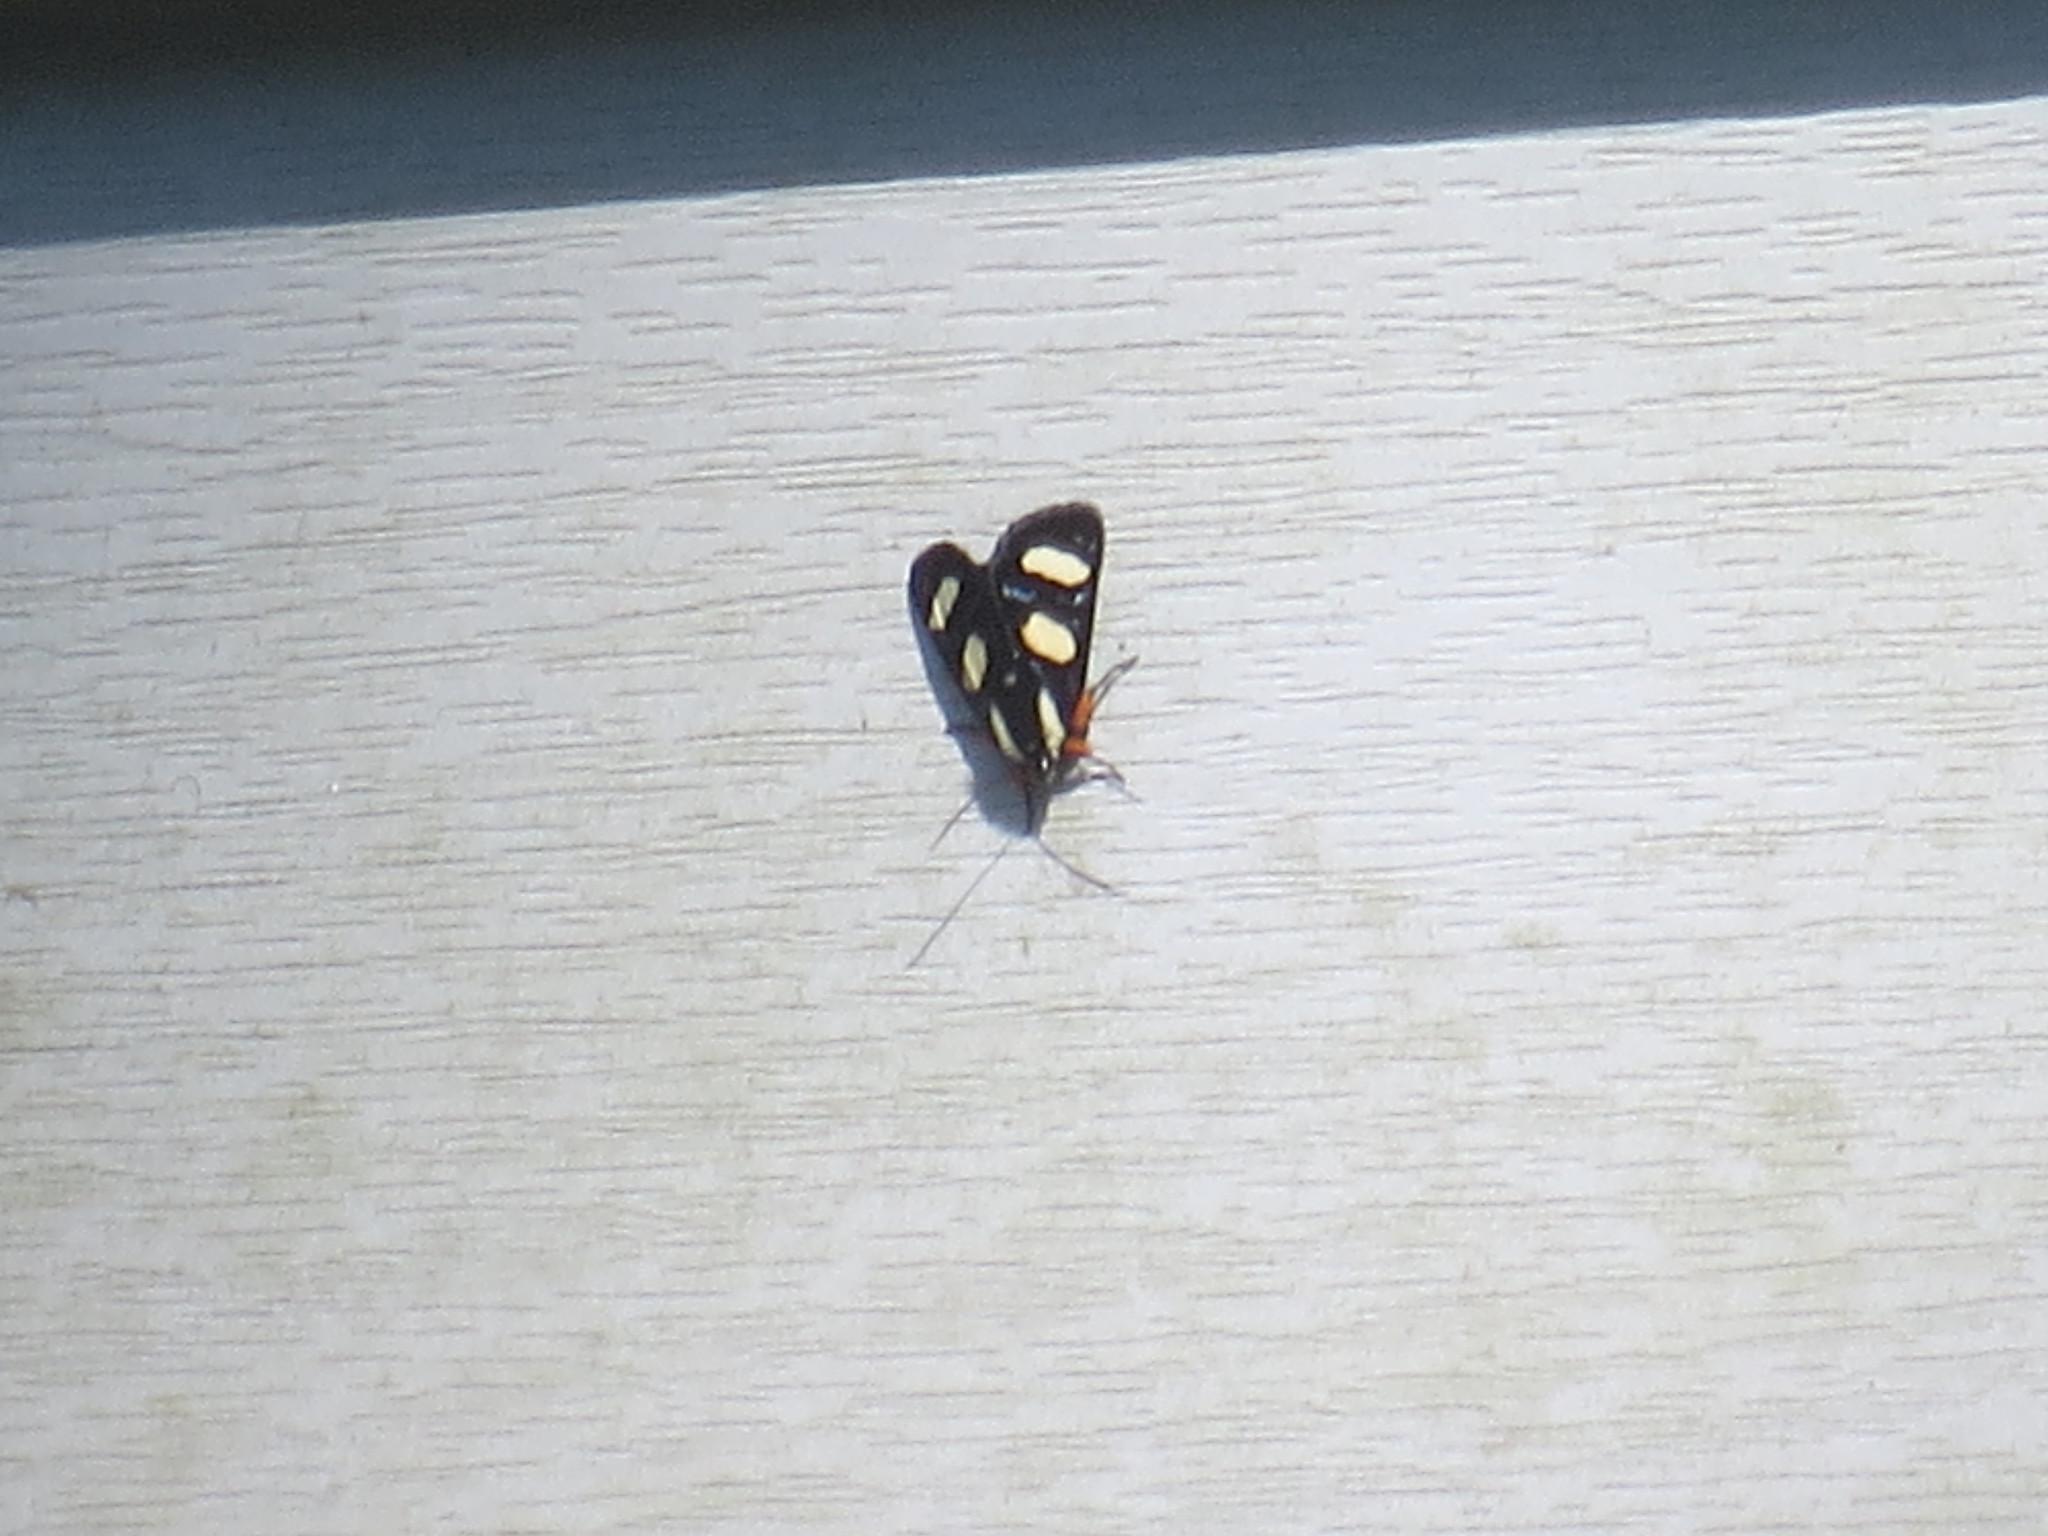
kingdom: Animalia
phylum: Arthropoda
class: Insecta
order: Lepidoptera
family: Noctuidae
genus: Alypia
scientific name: Alypia wittfeldii
